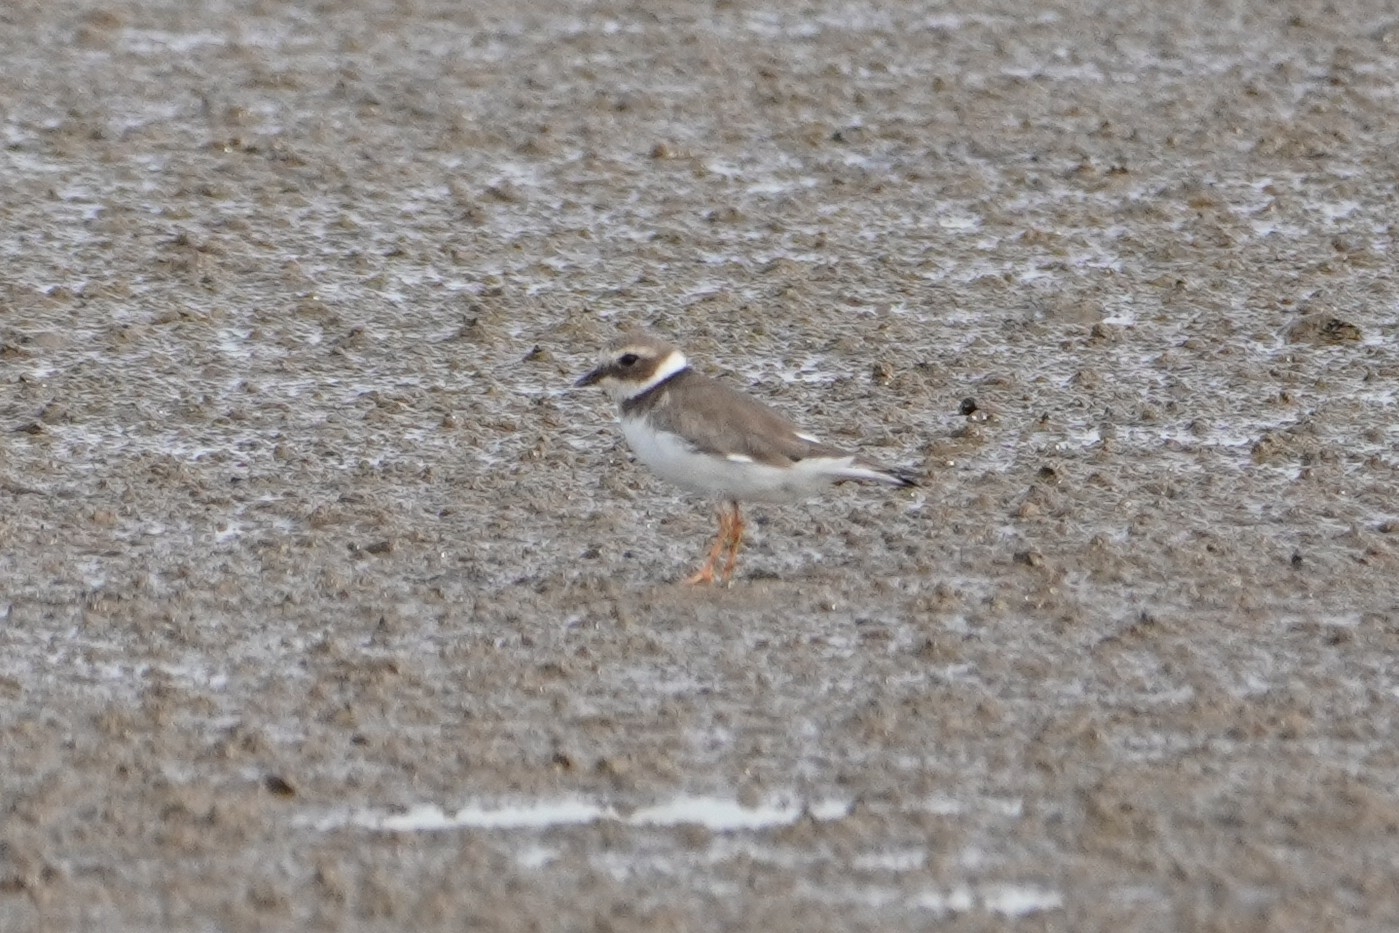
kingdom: Animalia
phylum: Chordata
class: Aves
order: Charadriiformes
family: Charadriidae
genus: Charadrius
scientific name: Charadrius hiaticula
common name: Common ringed plover
